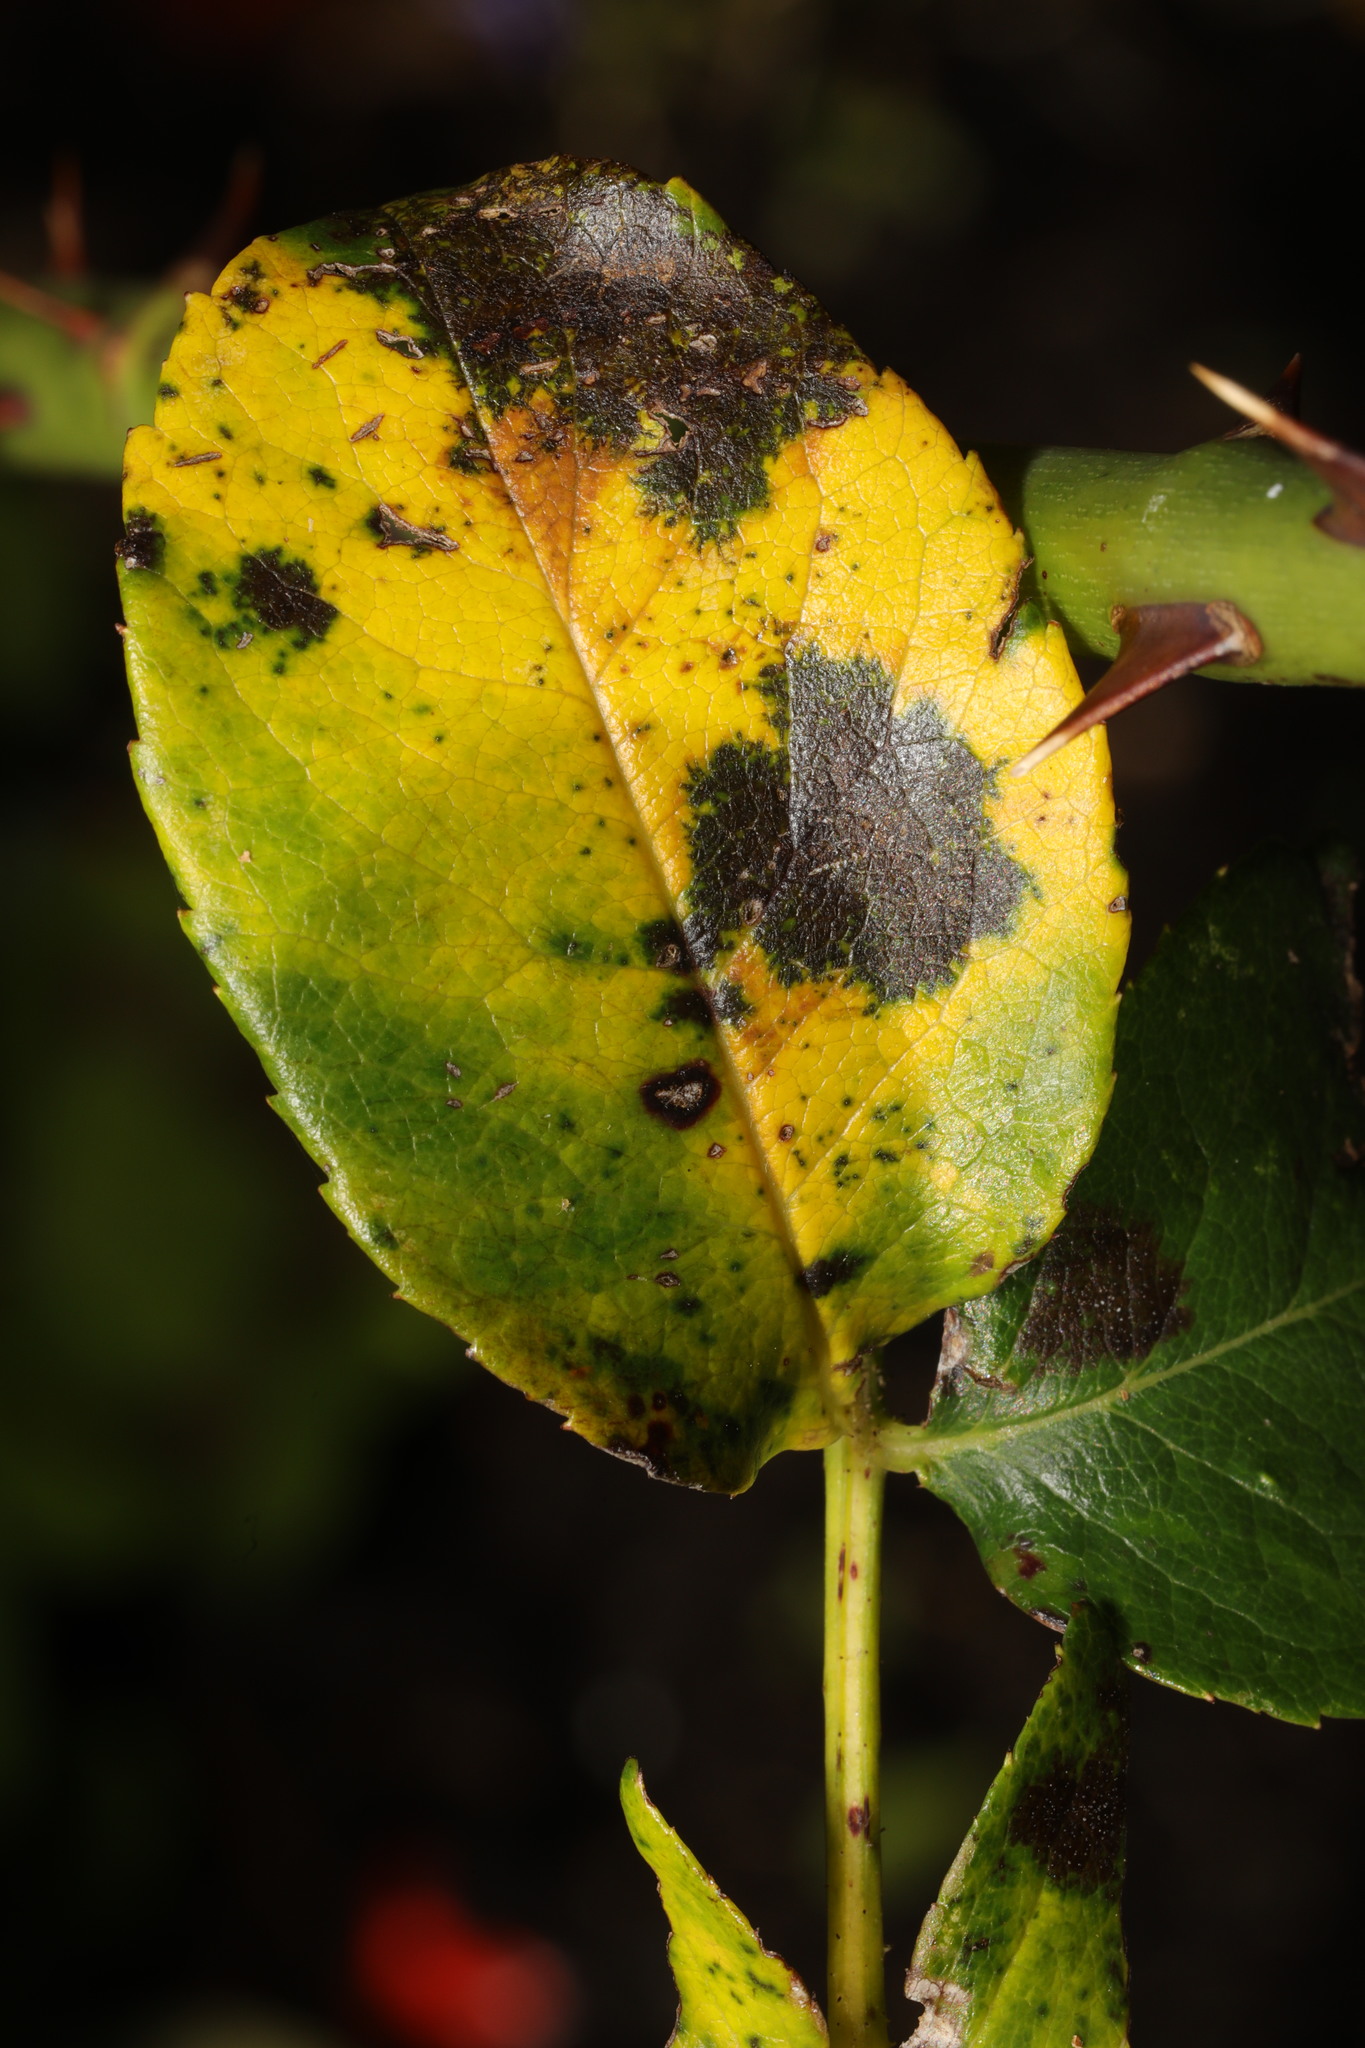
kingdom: Fungi
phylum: Ascomycota
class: Leotiomycetes
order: Helotiales
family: Drepanopezizaceae
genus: Diplocarpon
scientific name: Diplocarpon rosae
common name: Rose black-spot
